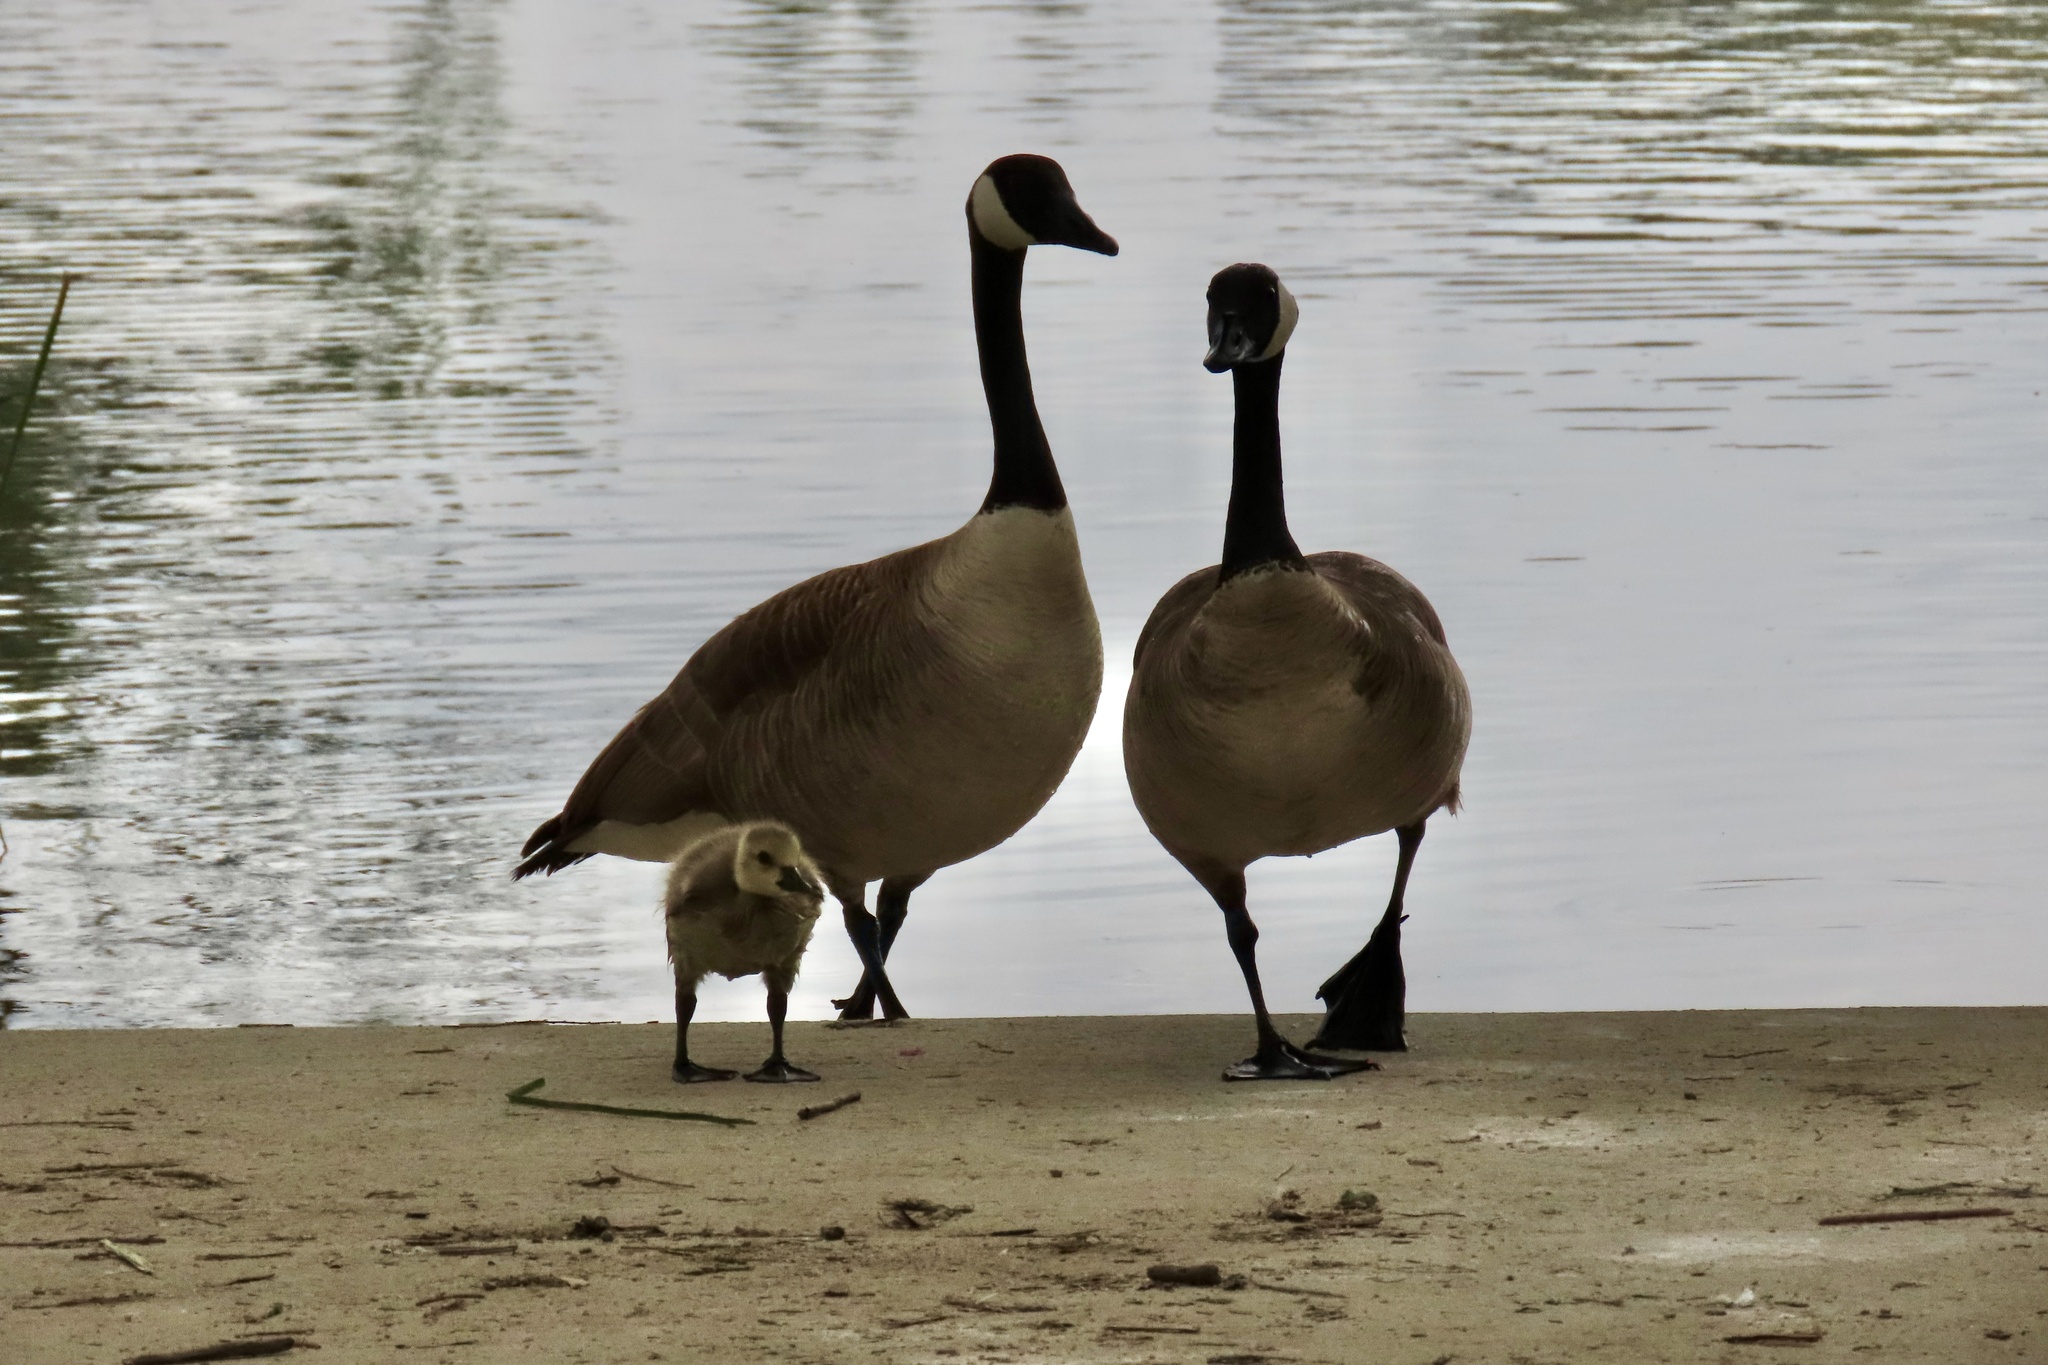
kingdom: Animalia
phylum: Chordata
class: Aves
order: Anseriformes
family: Anatidae
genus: Branta
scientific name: Branta canadensis
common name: Canada goose
